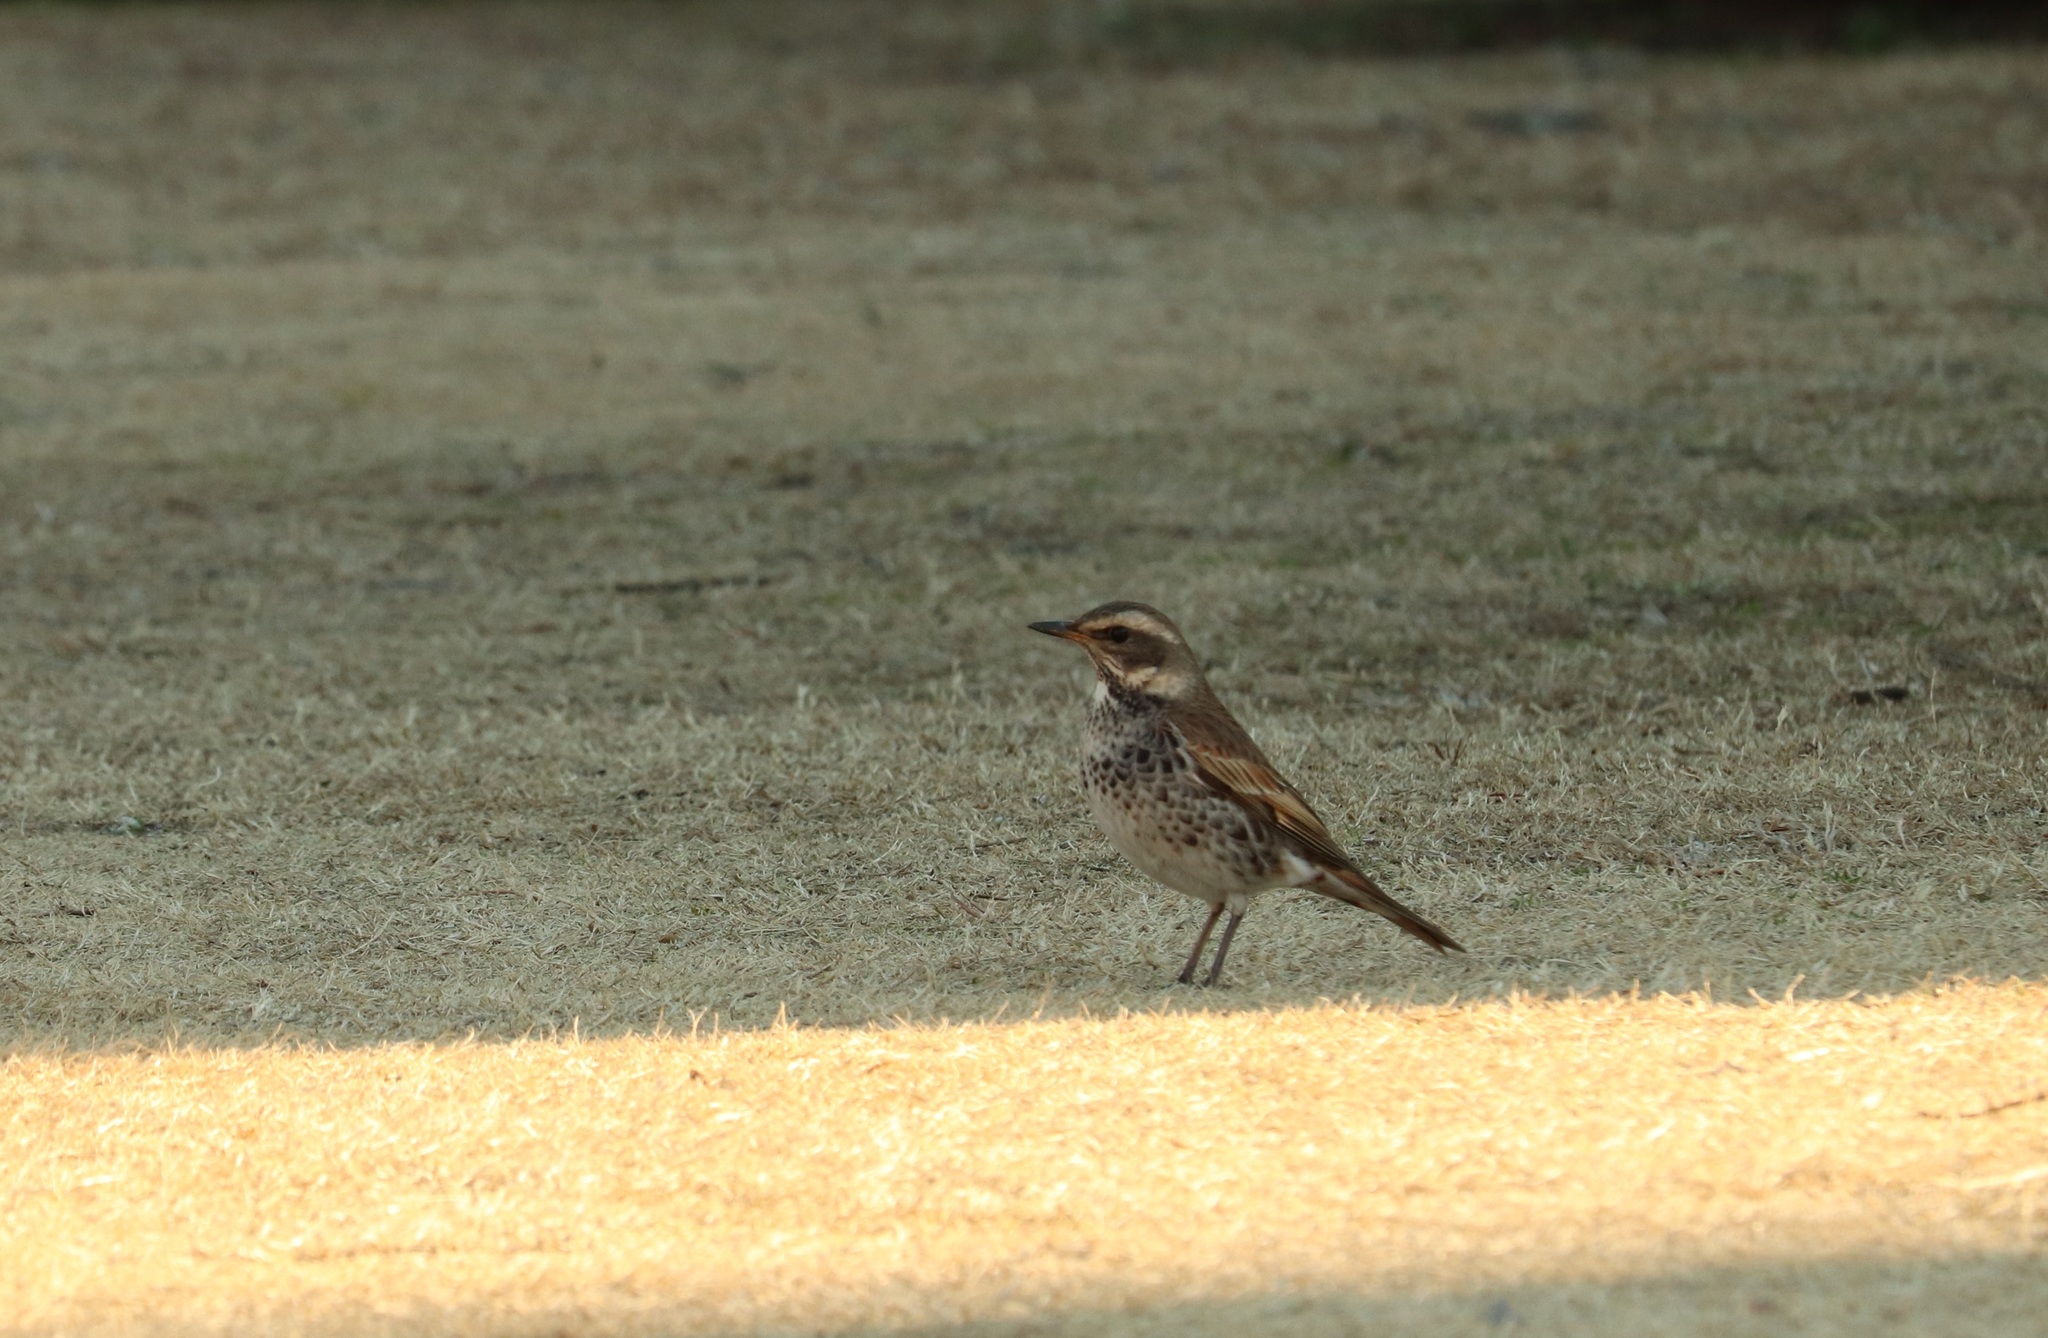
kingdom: Animalia
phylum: Chordata
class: Aves
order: Passeriformes
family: Turdidae
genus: Turdus
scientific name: Turdus eunomus
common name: Dusky thrush
